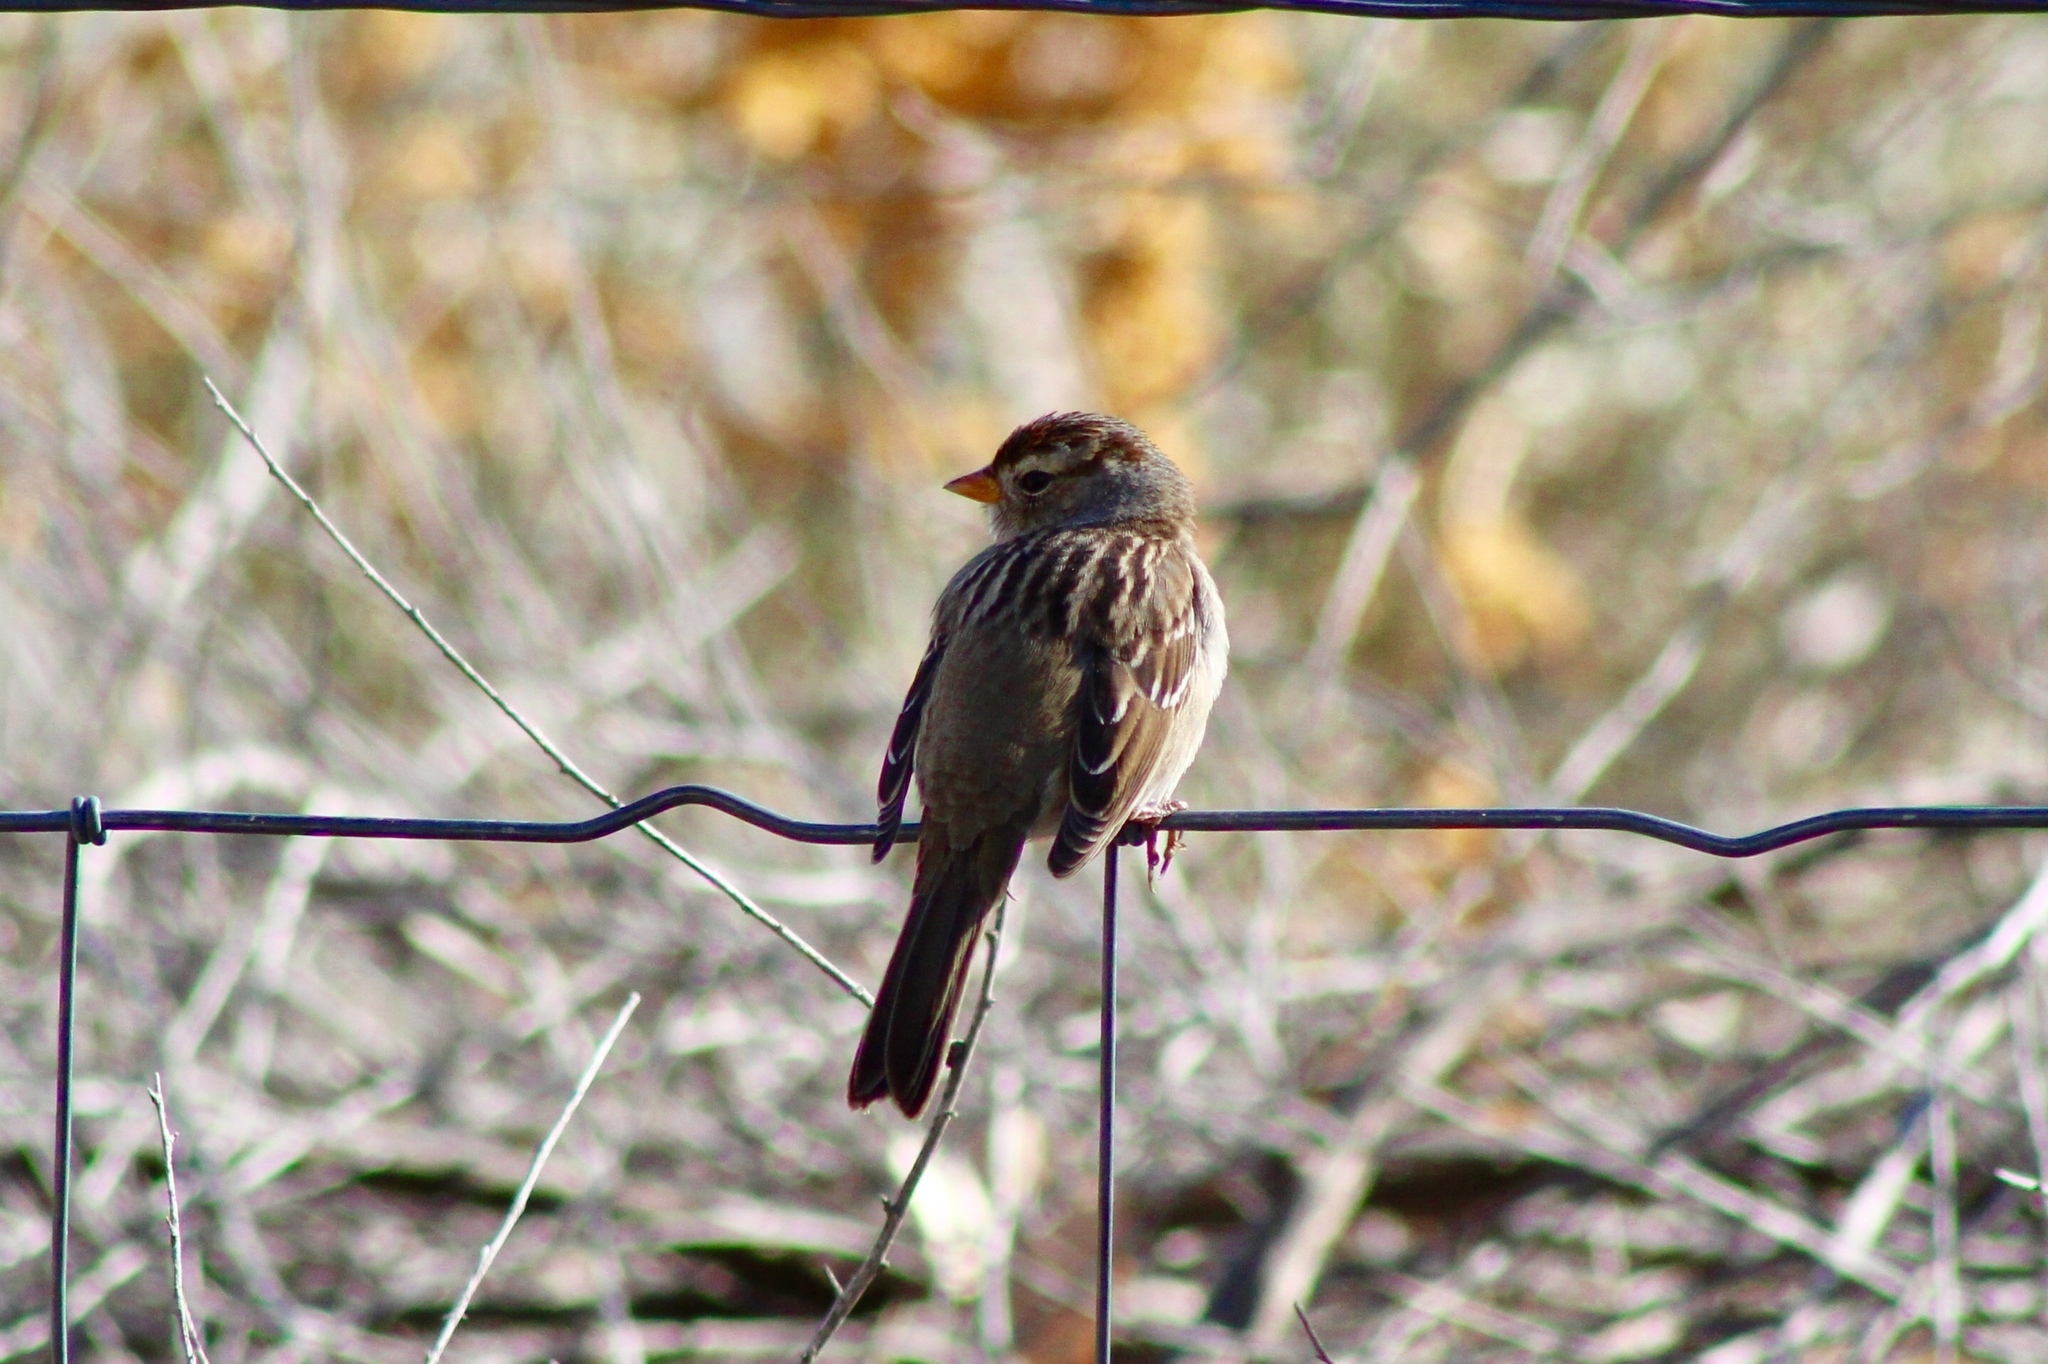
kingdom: Animalia
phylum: Chordata
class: Aves
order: Passeriformes
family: Passerellidae
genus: Zonotrichia
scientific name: Zonotrichia leucophrys
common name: White-crowned sparrow
